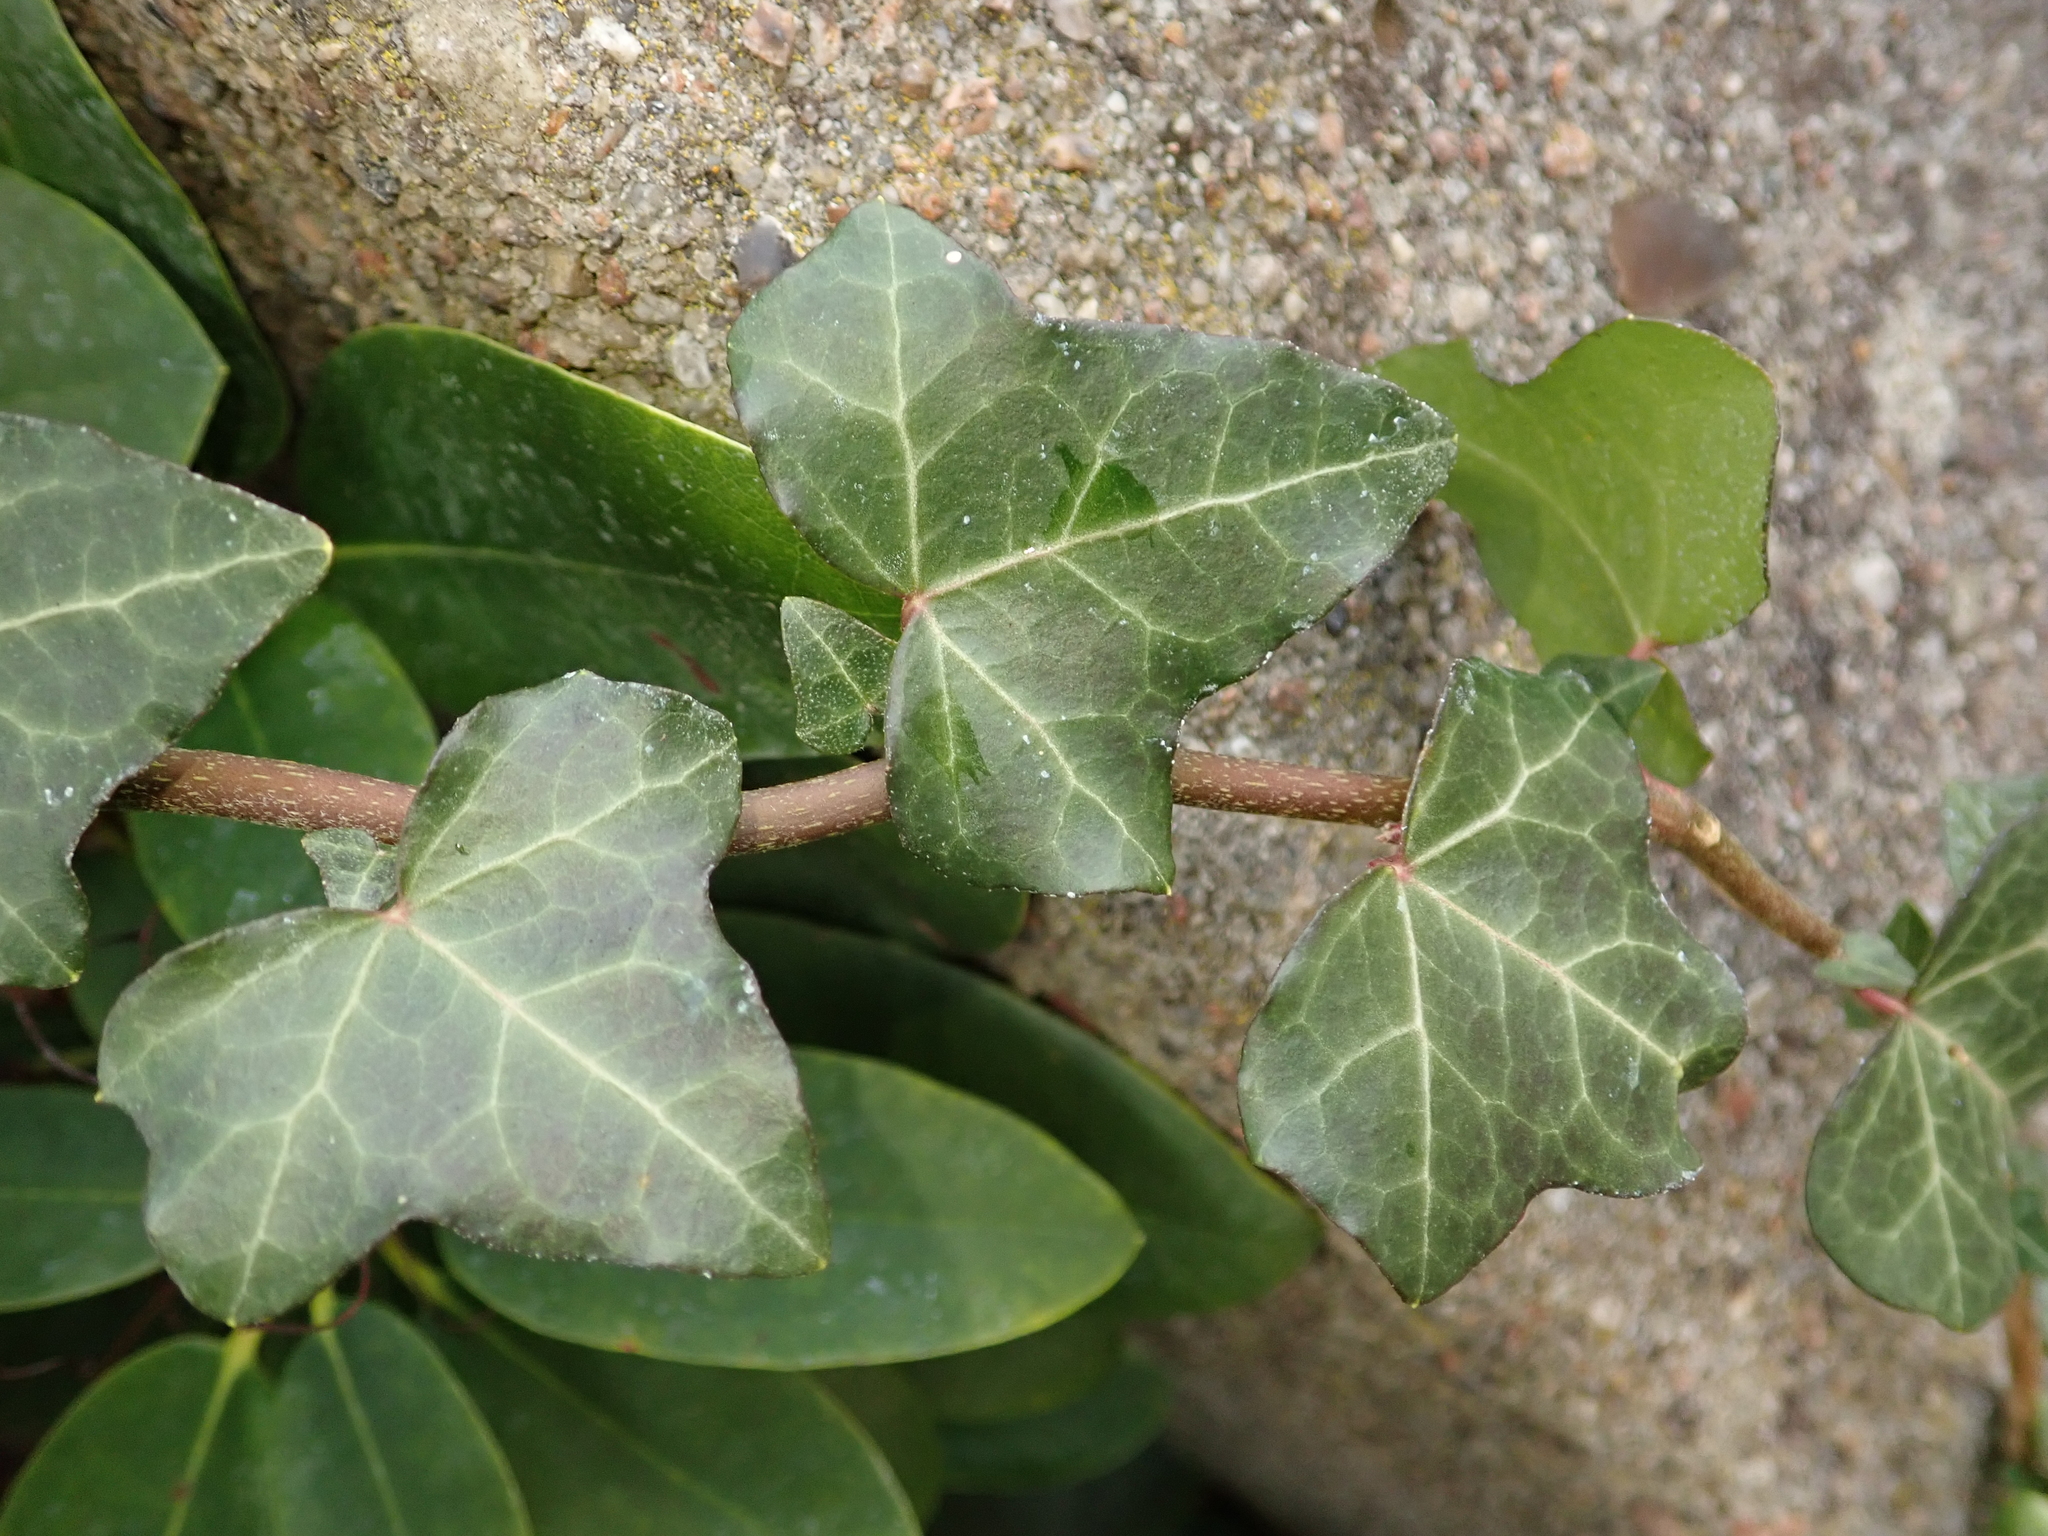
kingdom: Plantae
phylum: Tracheophyta
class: Magnoliopsida
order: Apiales
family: Araliaceae
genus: Hedera
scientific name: Hedera helix
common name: Ivy
